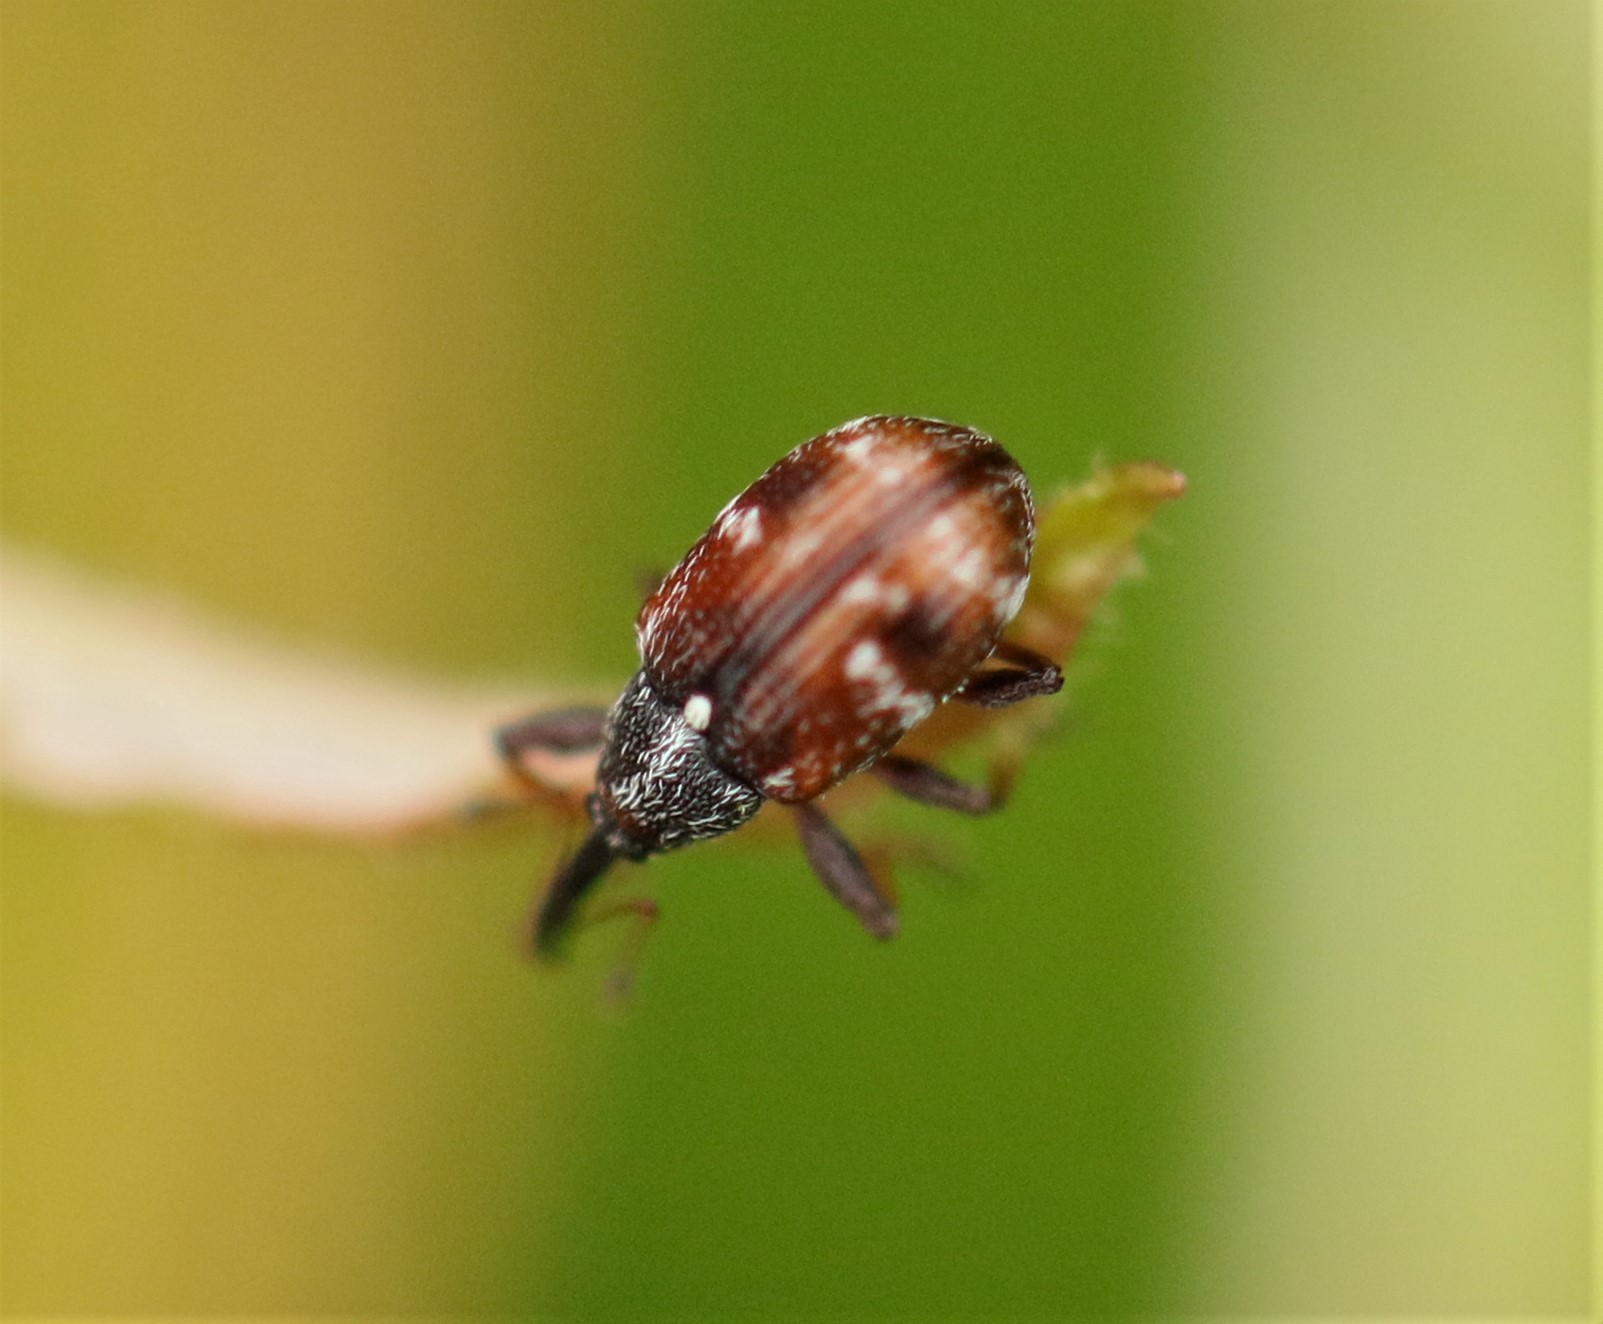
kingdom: Animalia
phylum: Arthropoda
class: Insecta
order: Coleoptera
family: Curculionidae
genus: Anthonomus
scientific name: Anthonomus signatus
